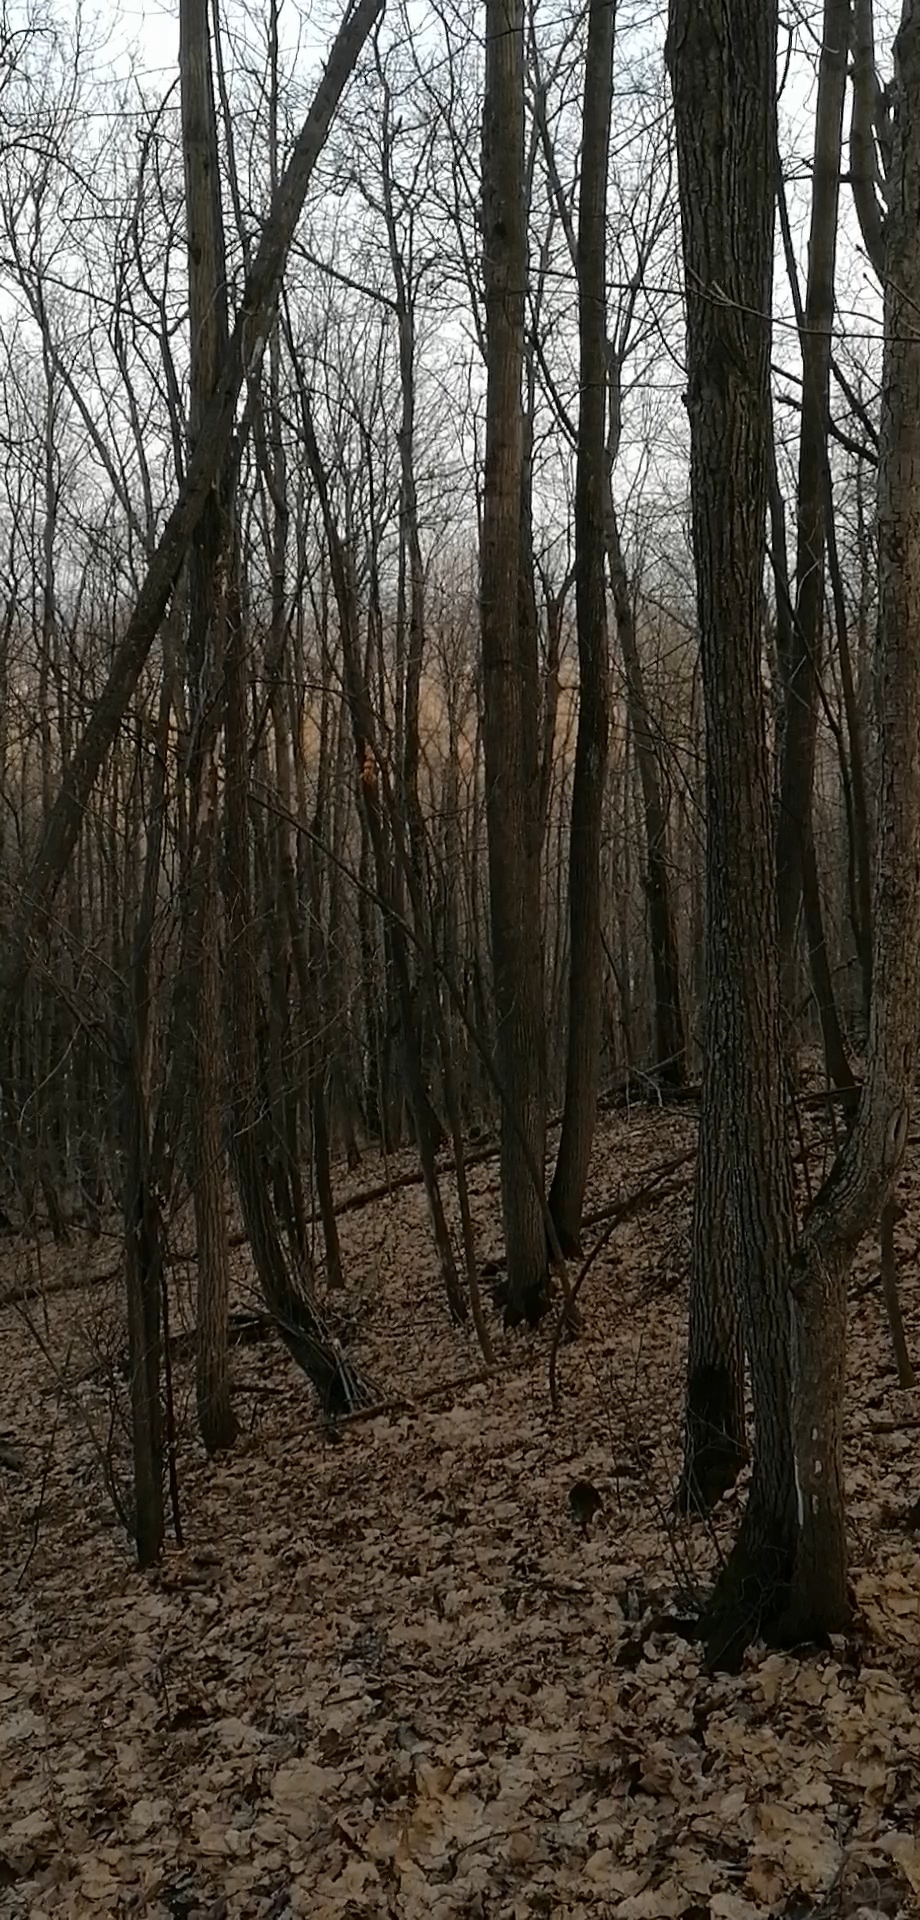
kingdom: Animalia
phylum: Chordata
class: Aves
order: Passeriformes
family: Turdidae
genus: Turdus
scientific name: Turdus merula
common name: Common blackbird
